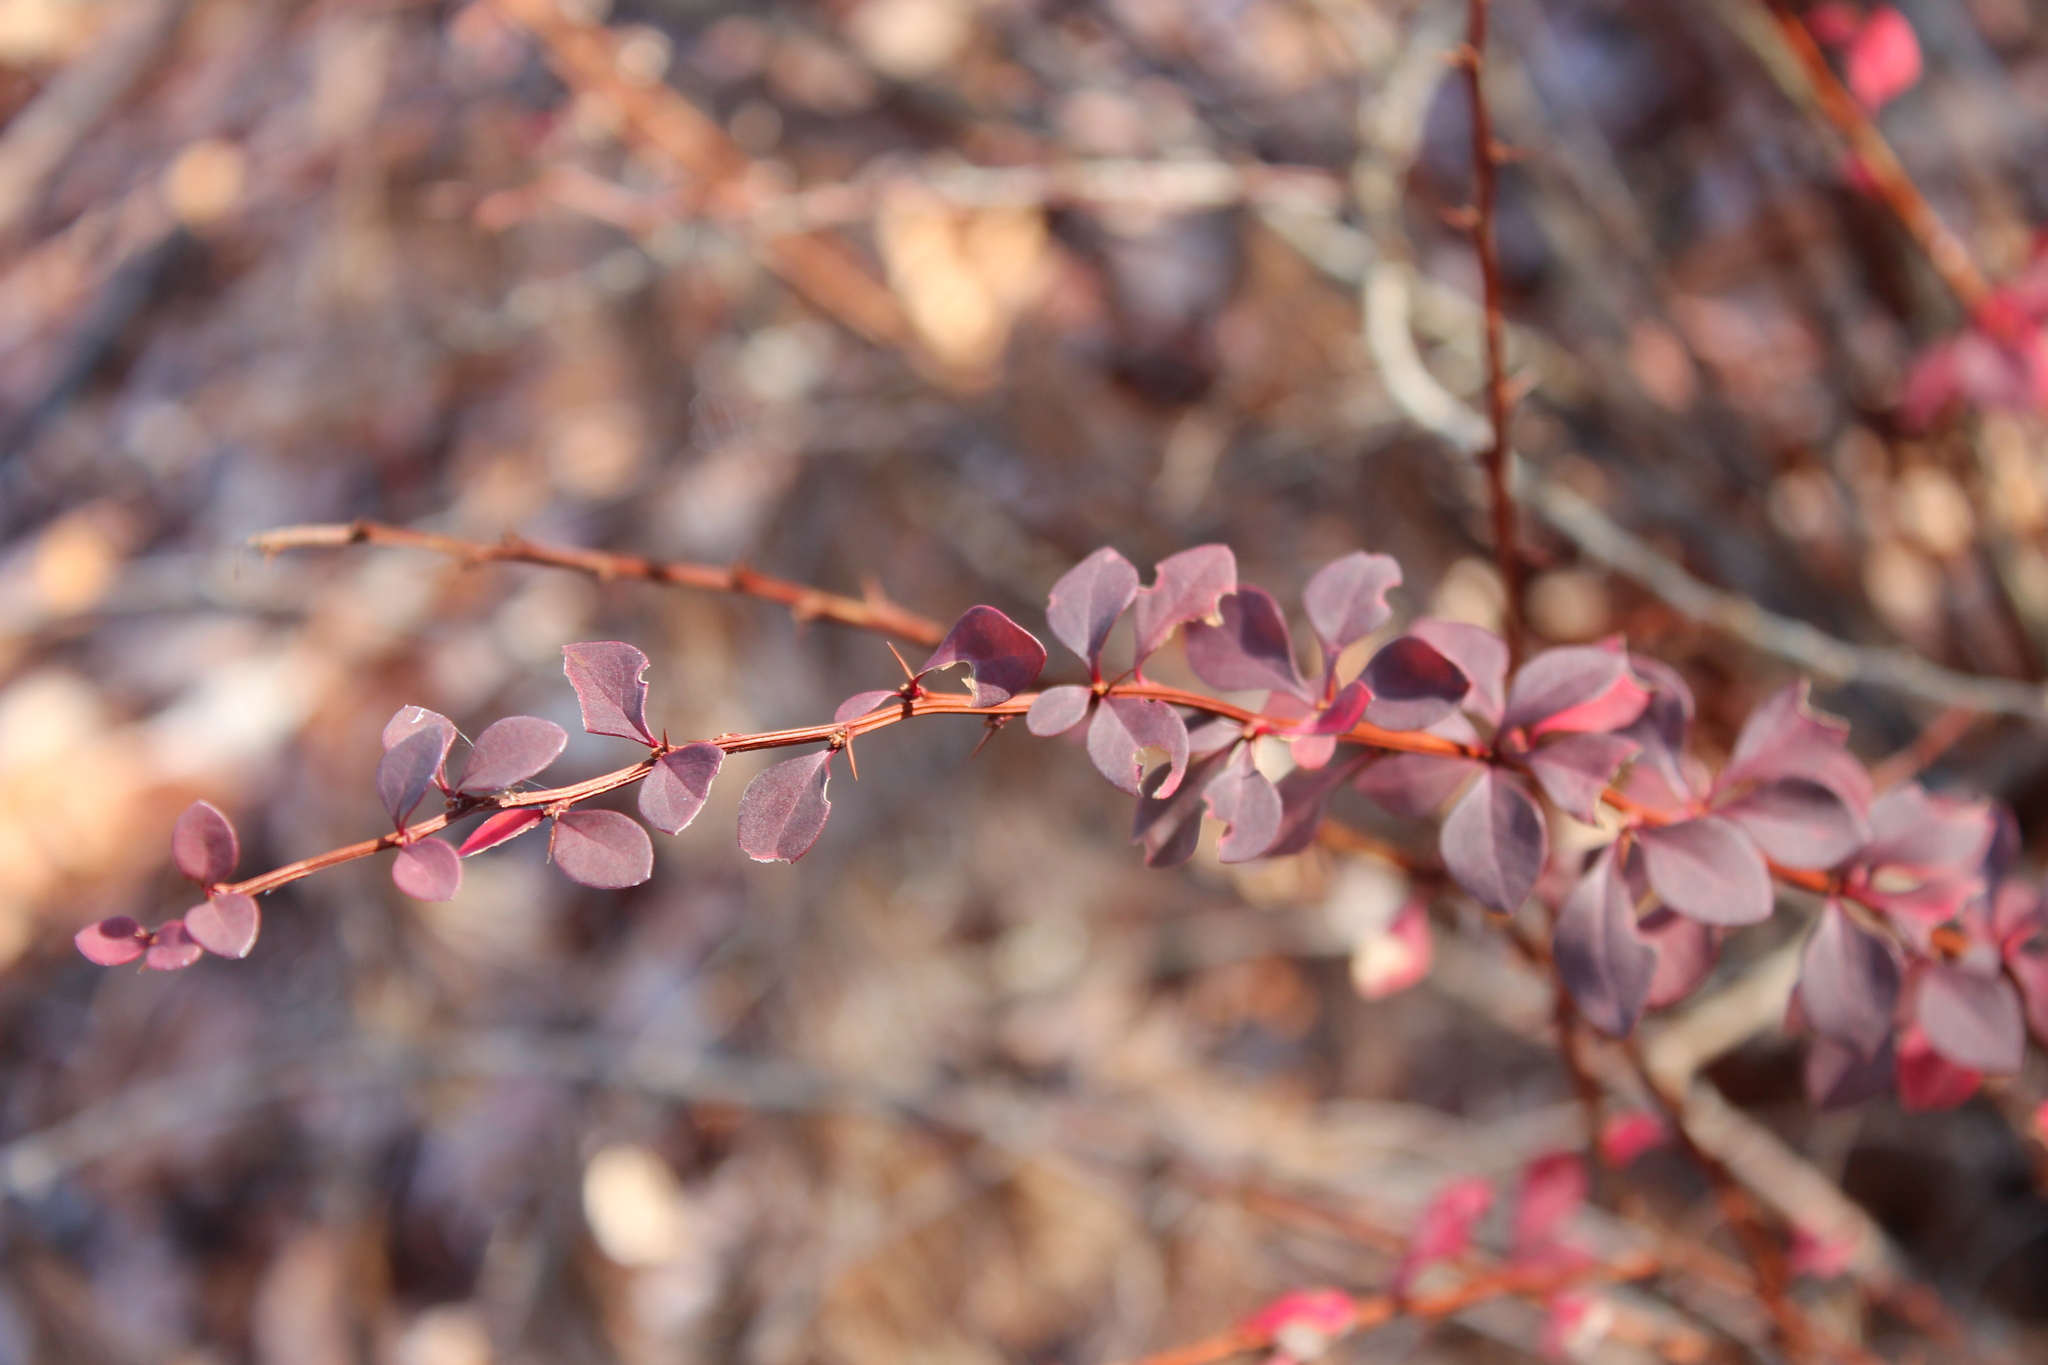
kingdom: Plantae
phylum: Tracheophyta
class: Magnoliopsida
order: Ranunculales
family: Berberidaceae
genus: Berberis
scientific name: Berberis thunbergii
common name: Japanese barberry
